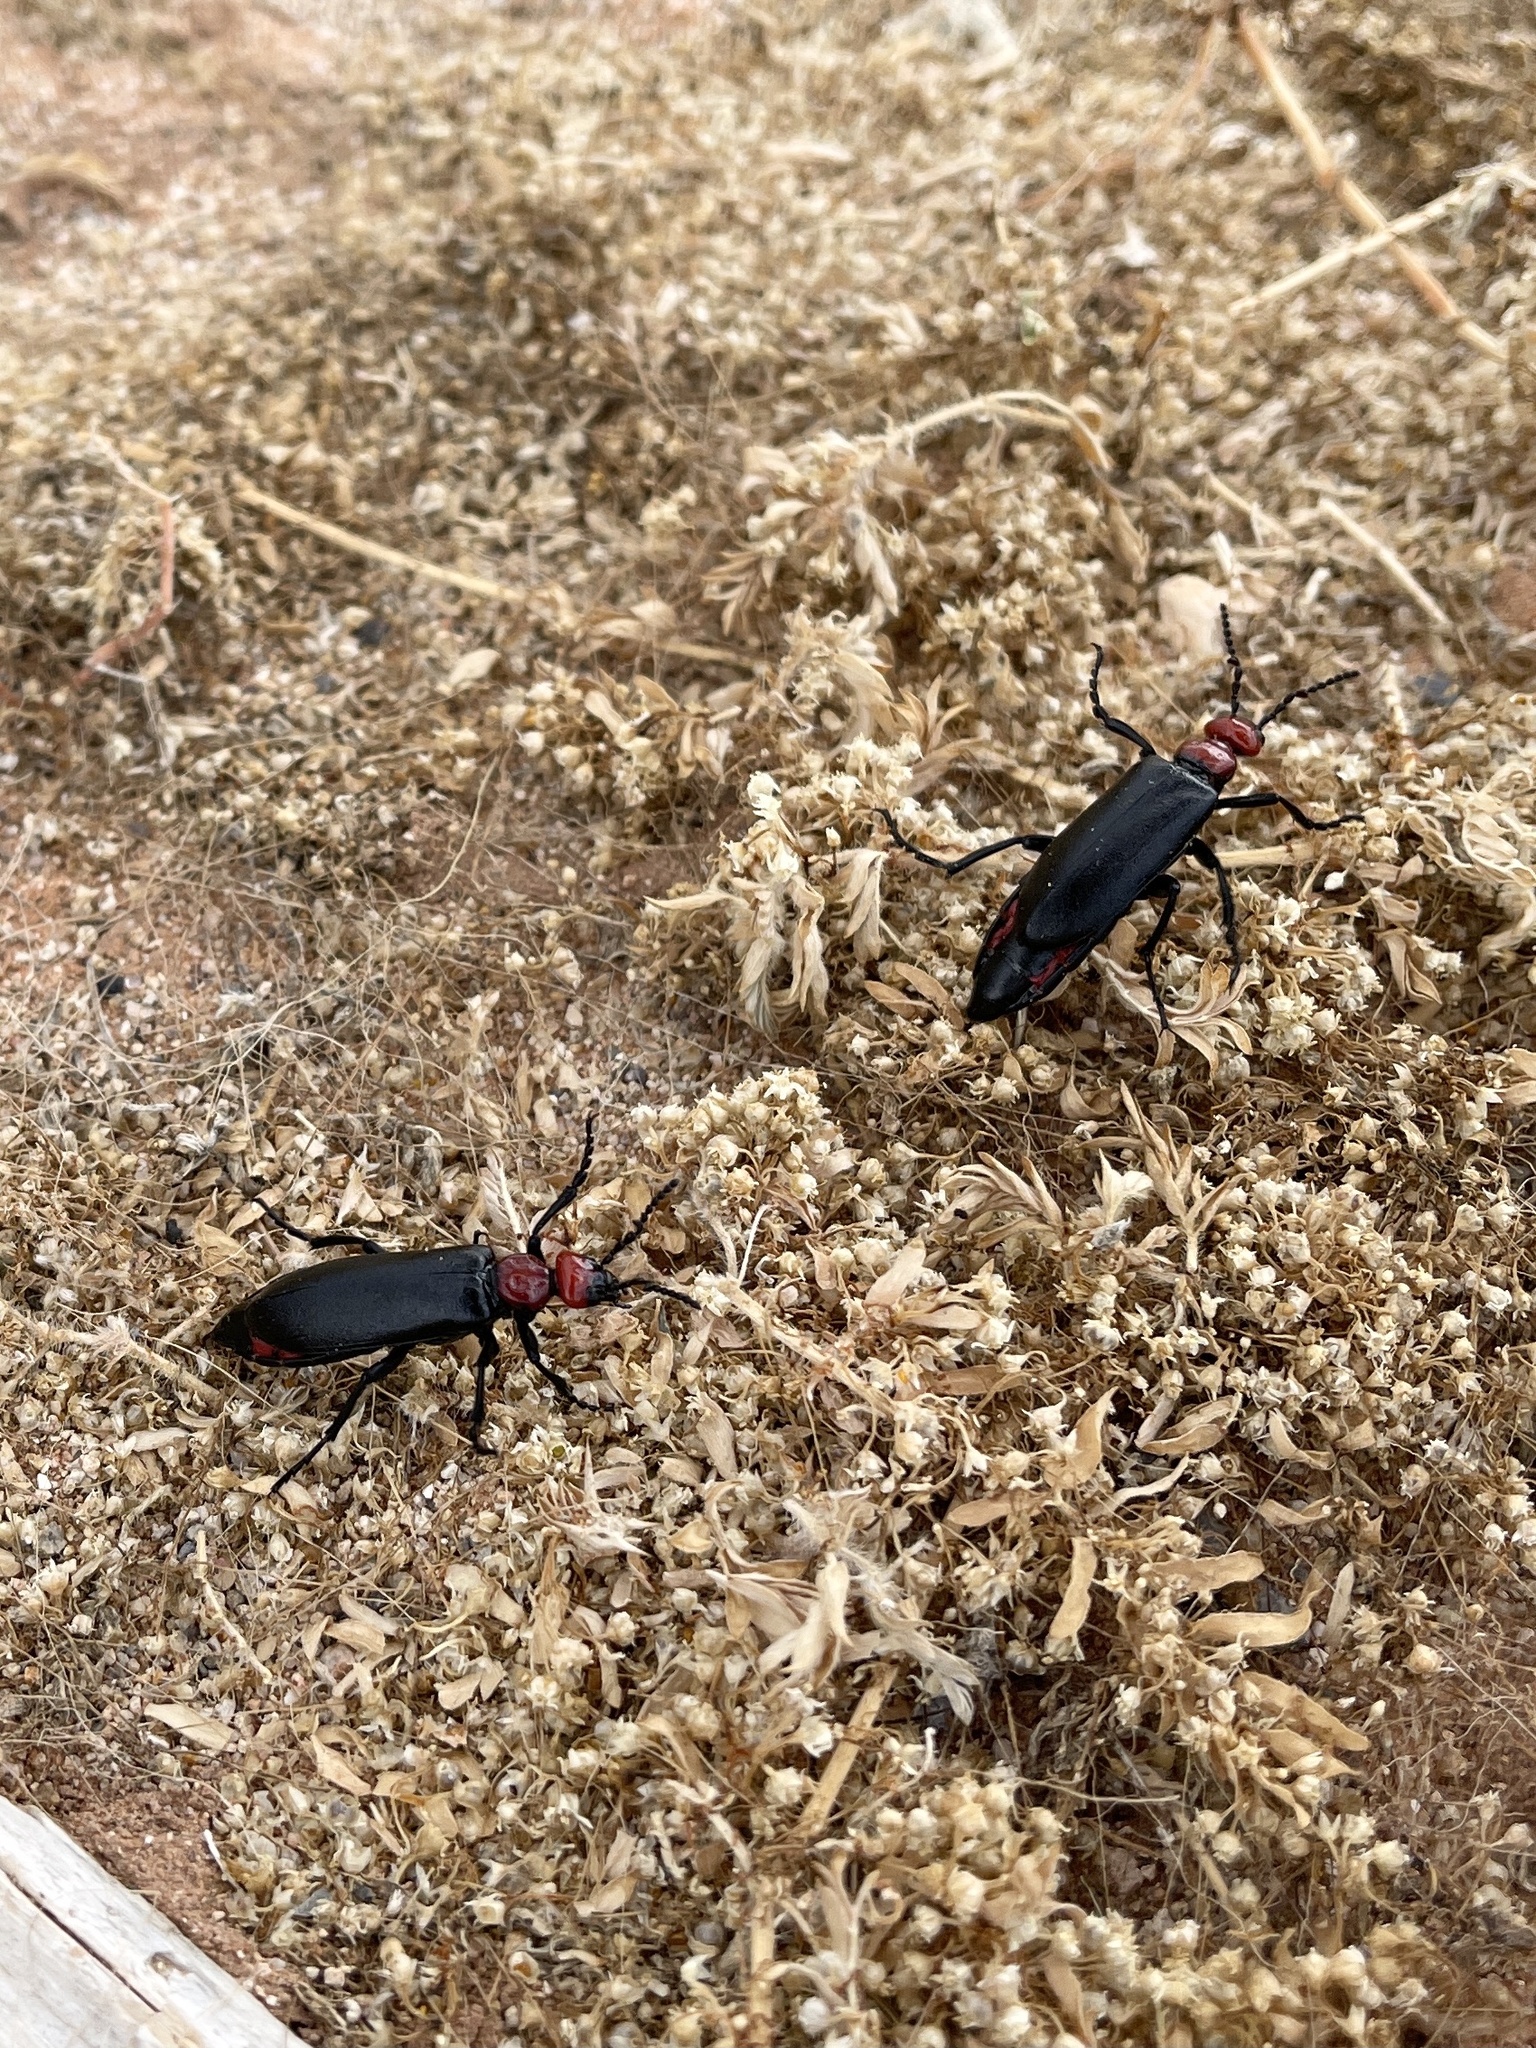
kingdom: Animalia
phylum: Arthropoda
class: Insecta
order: Coleoptera
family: Meloidae
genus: Lytta
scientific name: Lytta mutilata
